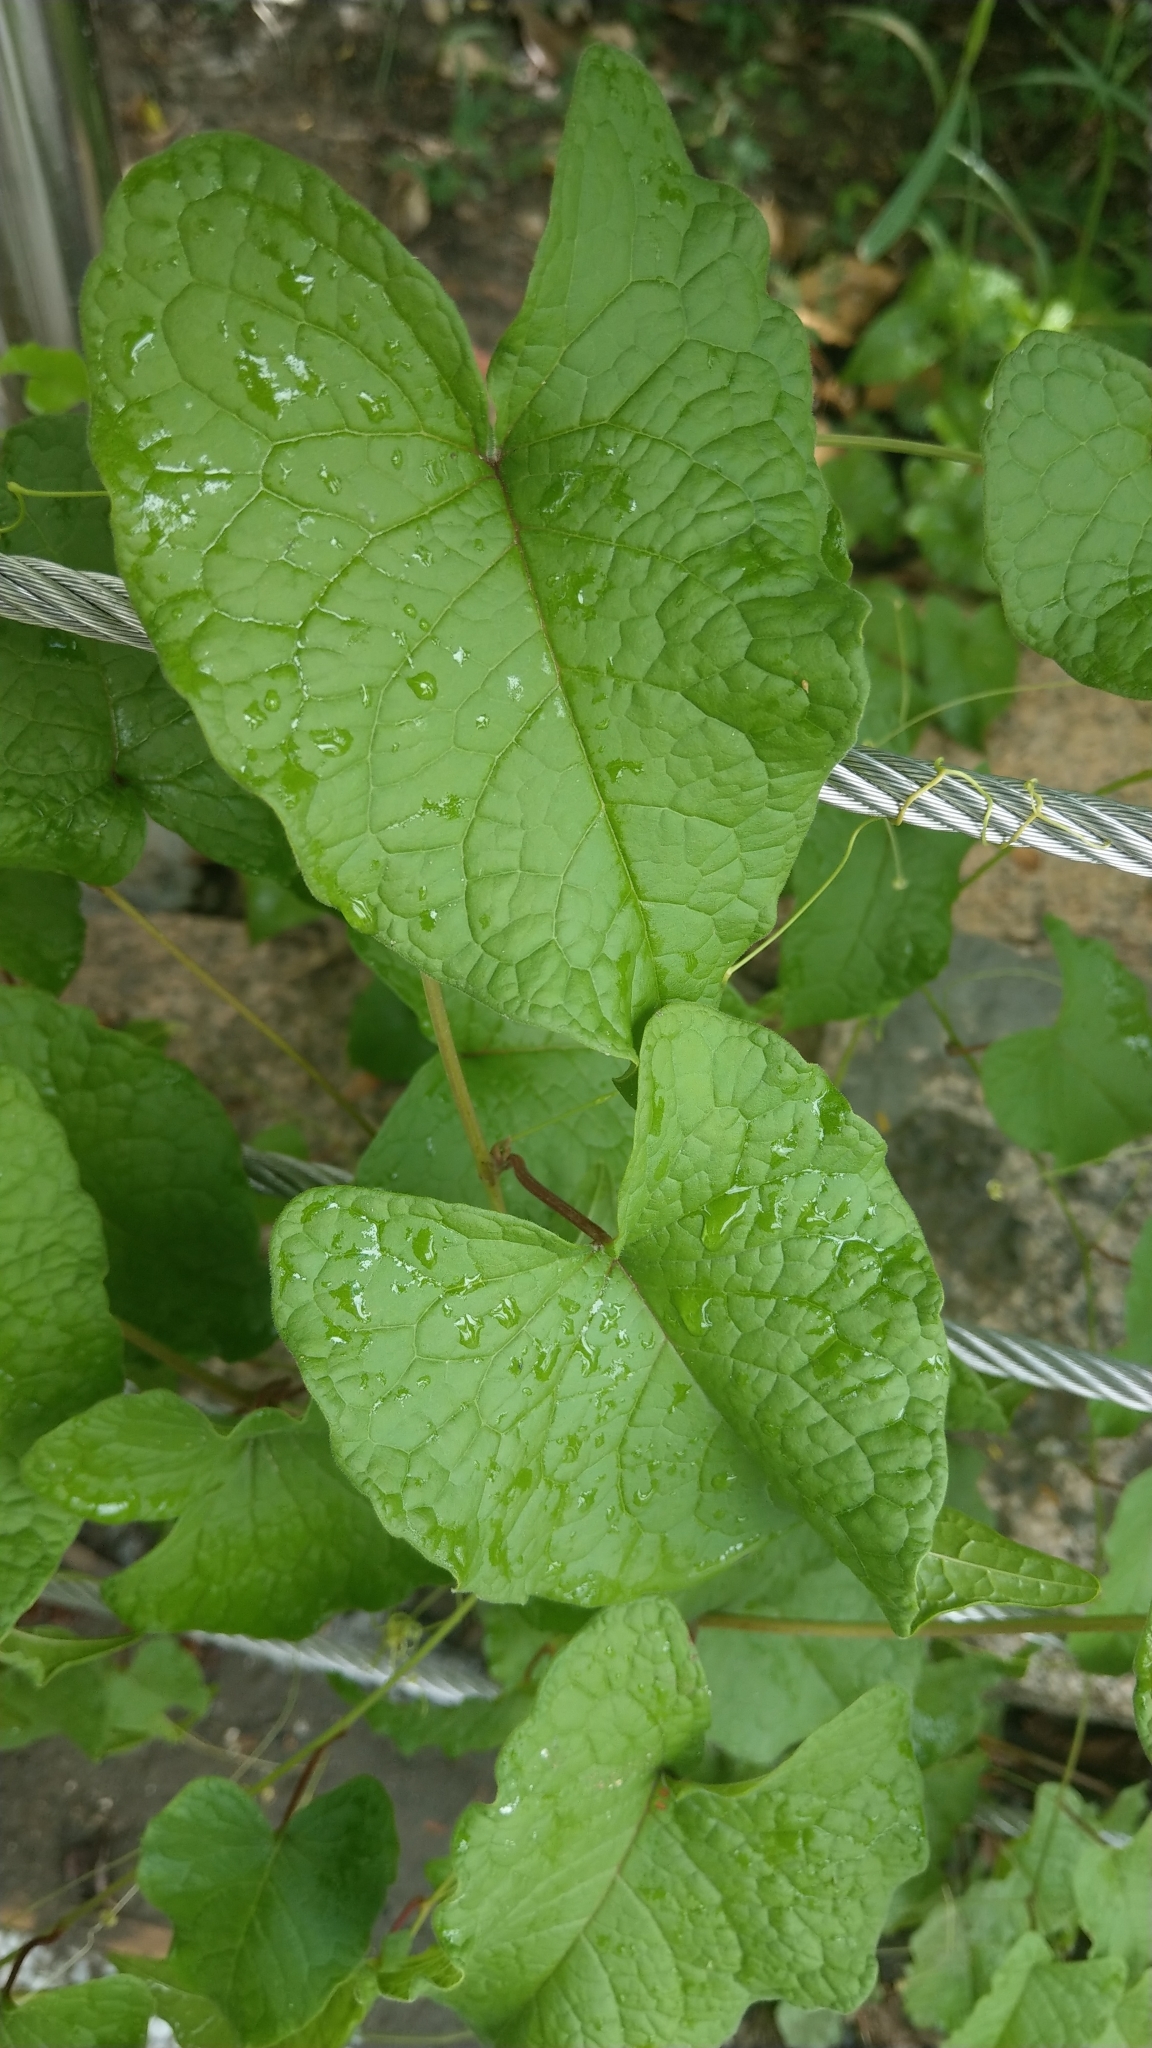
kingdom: Plantae
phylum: Tracheophyta
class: Magnoliopsida
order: Caryophyllales
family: Polygonaceae
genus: Antigonon
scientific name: Antigonon leptopus
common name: Coral vine
